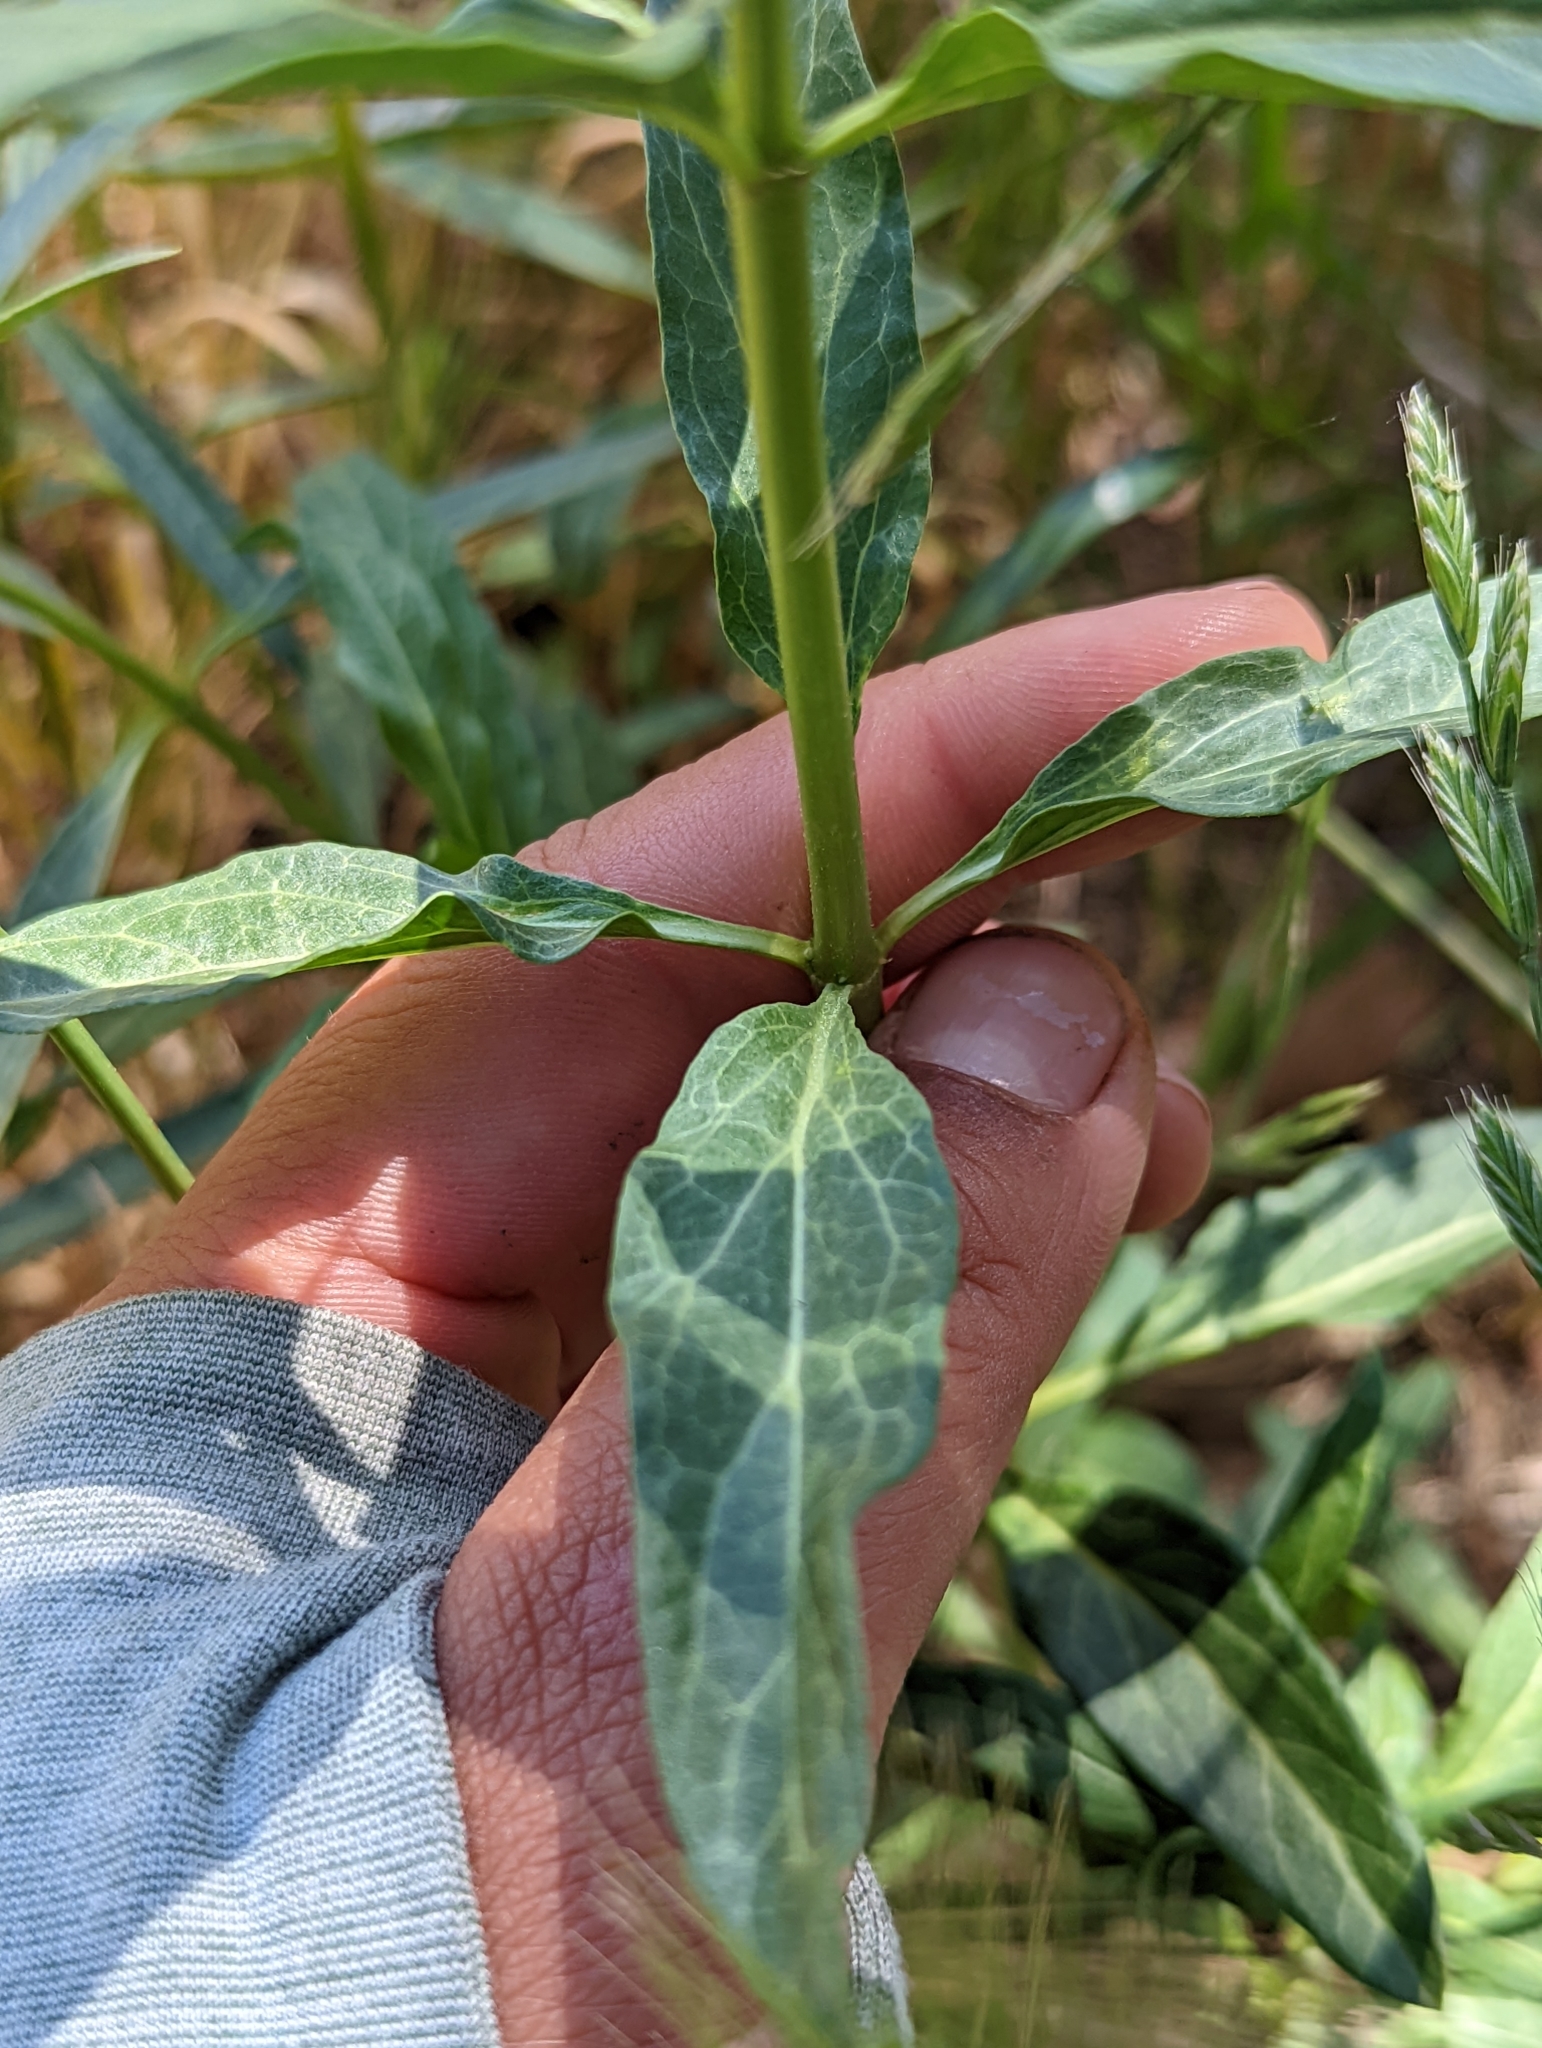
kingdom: Plantae
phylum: Tracheophyta
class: Magnoliopsida
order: Gentianales
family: Apocynaceae
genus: Asclepias
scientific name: Asclepias fascicularis
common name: Mexican milkweed
